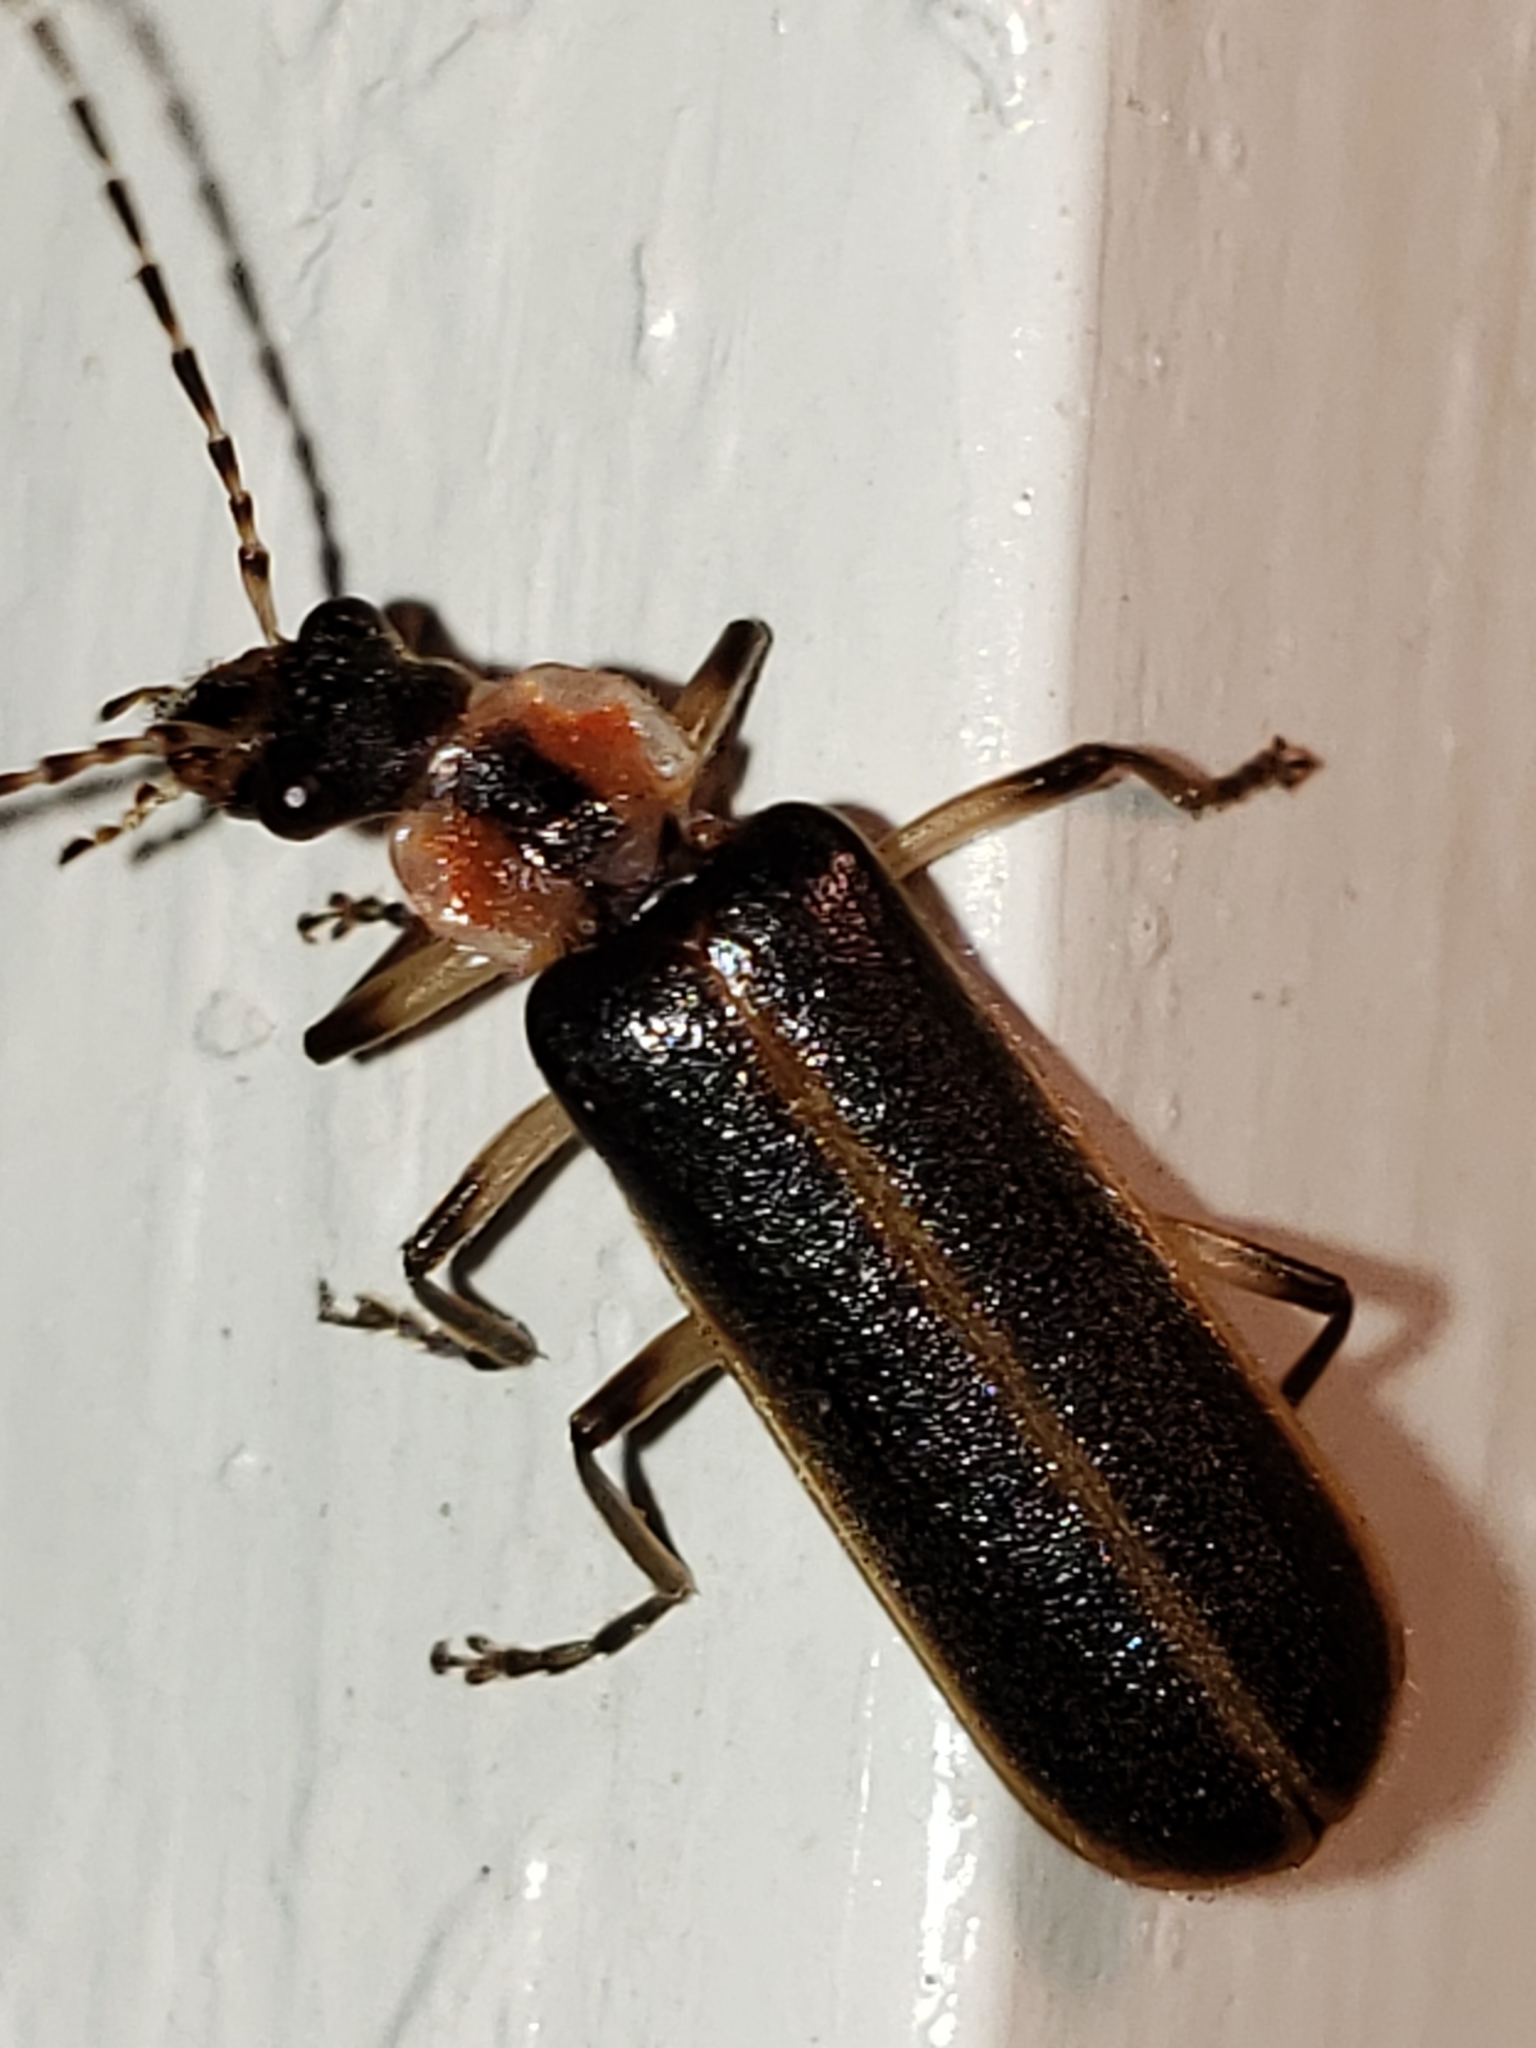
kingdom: Animalia
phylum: Arthropoda
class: Insecta
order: Coleoptera
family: Cantharidae
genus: Podabrus
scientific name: Podabrus basilaris
